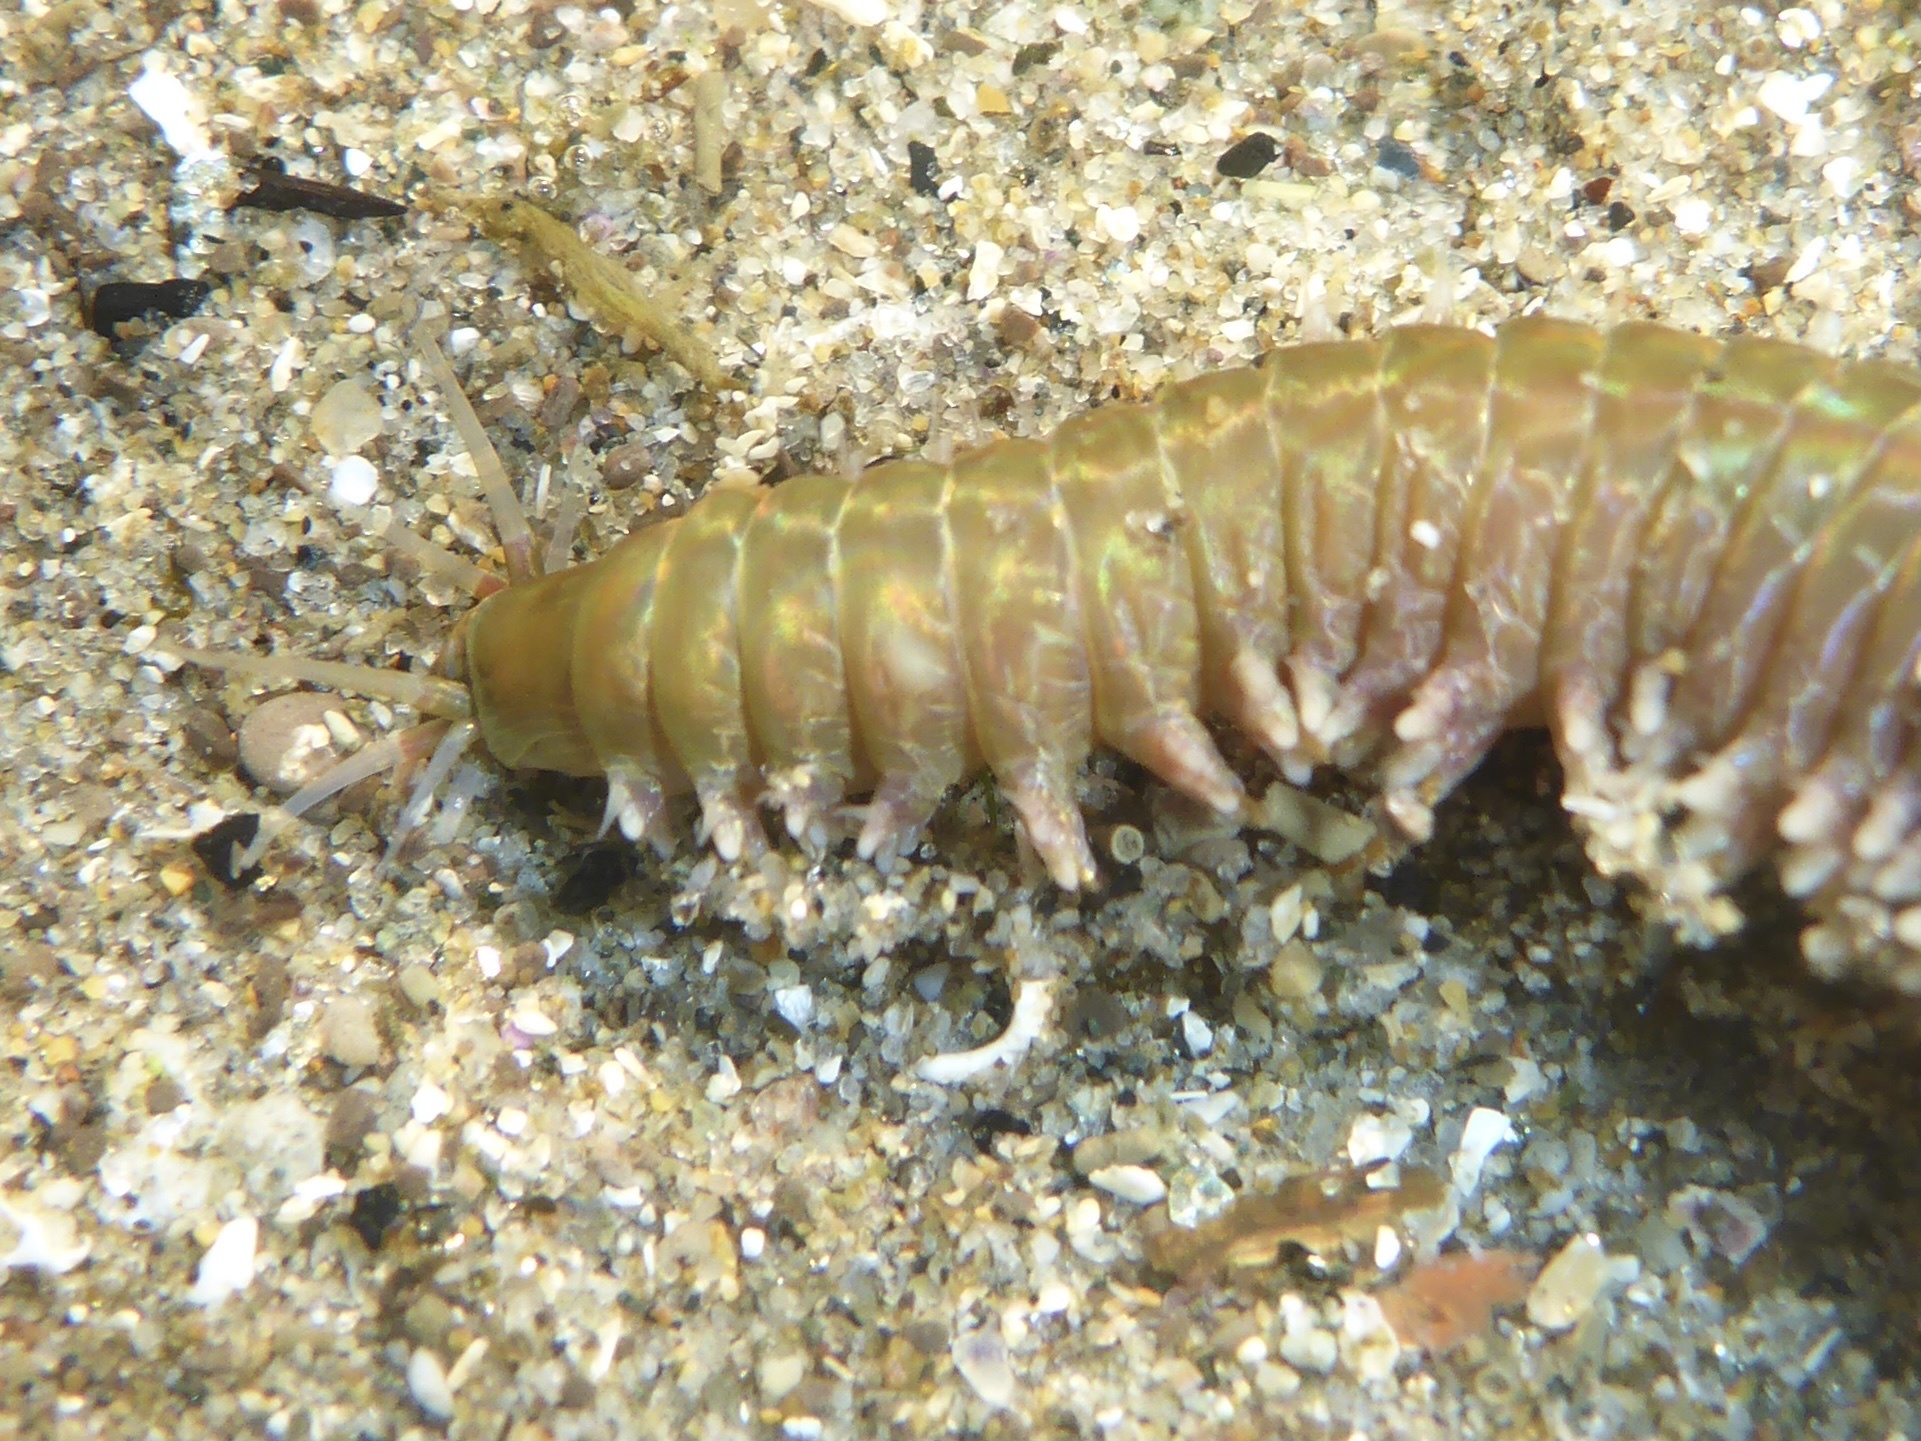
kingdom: Animalia
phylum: Annelida
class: Polychaeta
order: Phyllodocida
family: Nereididae
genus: Nereis
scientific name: Nereis vexillosa
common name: Mussel worm
